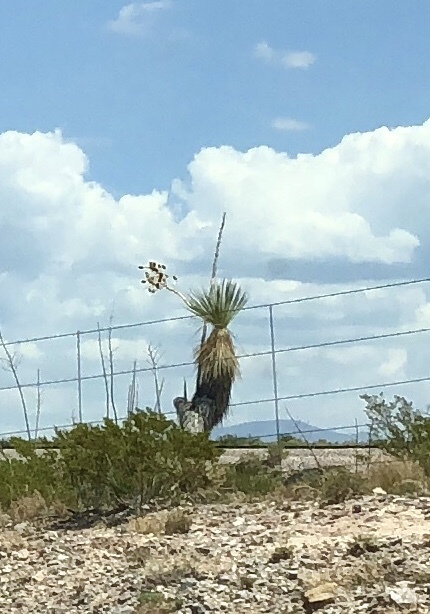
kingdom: Plantae
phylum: Tracheophyta
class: Liliopsida
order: Asparagales
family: Asparagaceae
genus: Yucca
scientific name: Yucca elata
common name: Palmella
